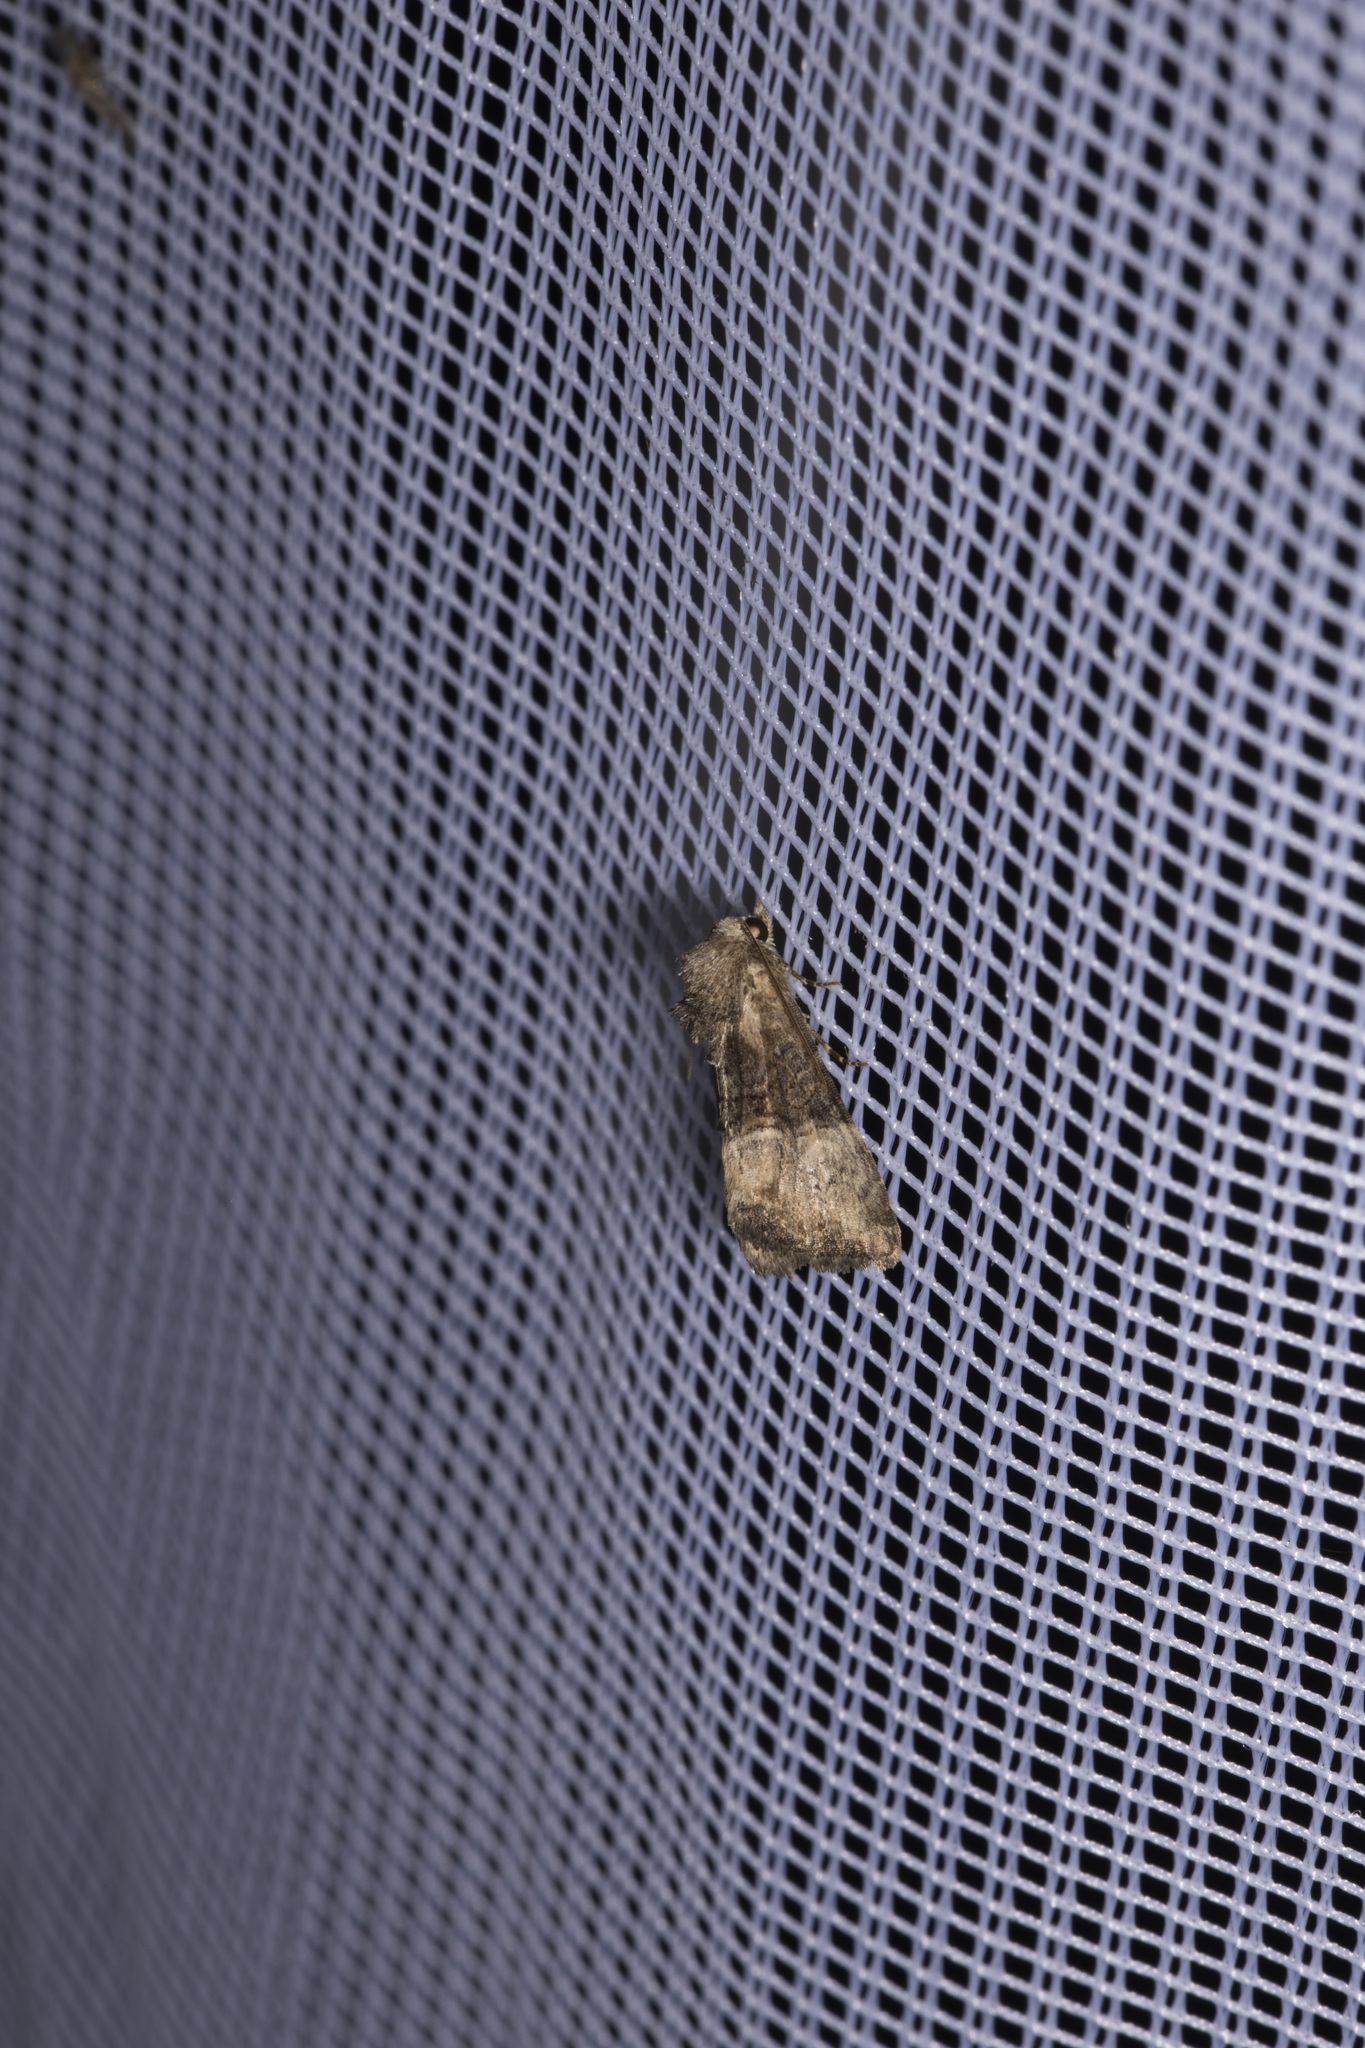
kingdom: Animalia
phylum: Arthropoda
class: Insecta
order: Lepidoptera
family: Noctuidae
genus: Mesoligia
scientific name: Mesoligia furuncula
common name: Cloaked minor
